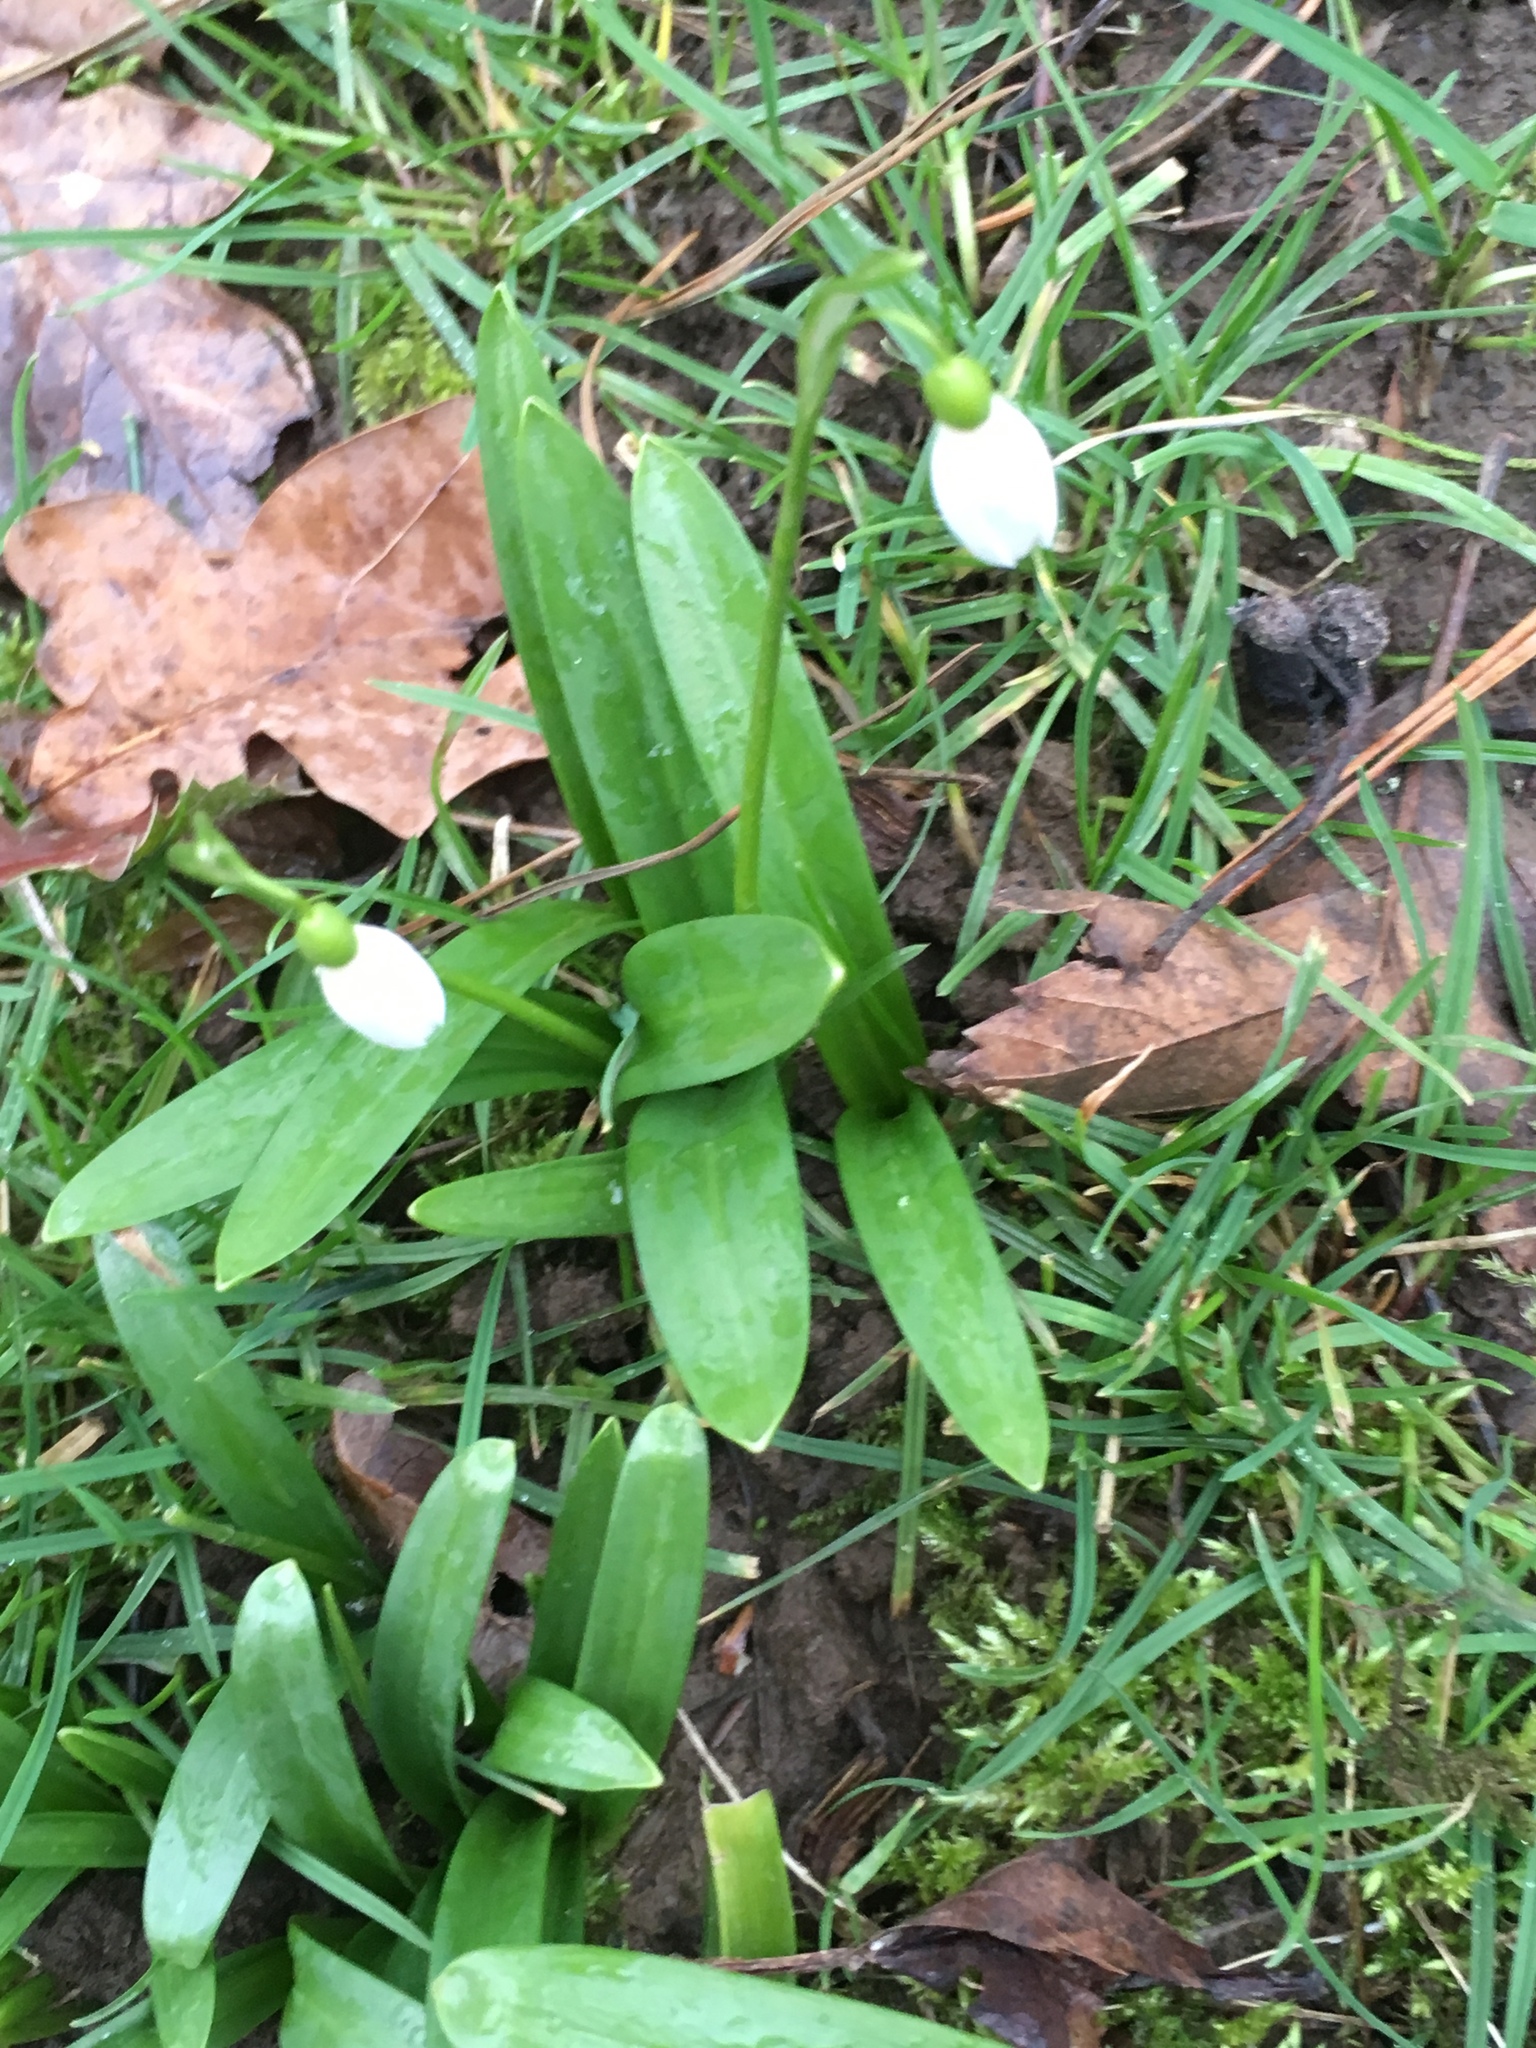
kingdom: Plantae
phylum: Tracheophyta
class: Liliopsida
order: Asparagales
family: Amaryllidaceae
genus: Galanthus
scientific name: Galanthus woronowii
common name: Green snowdrop
